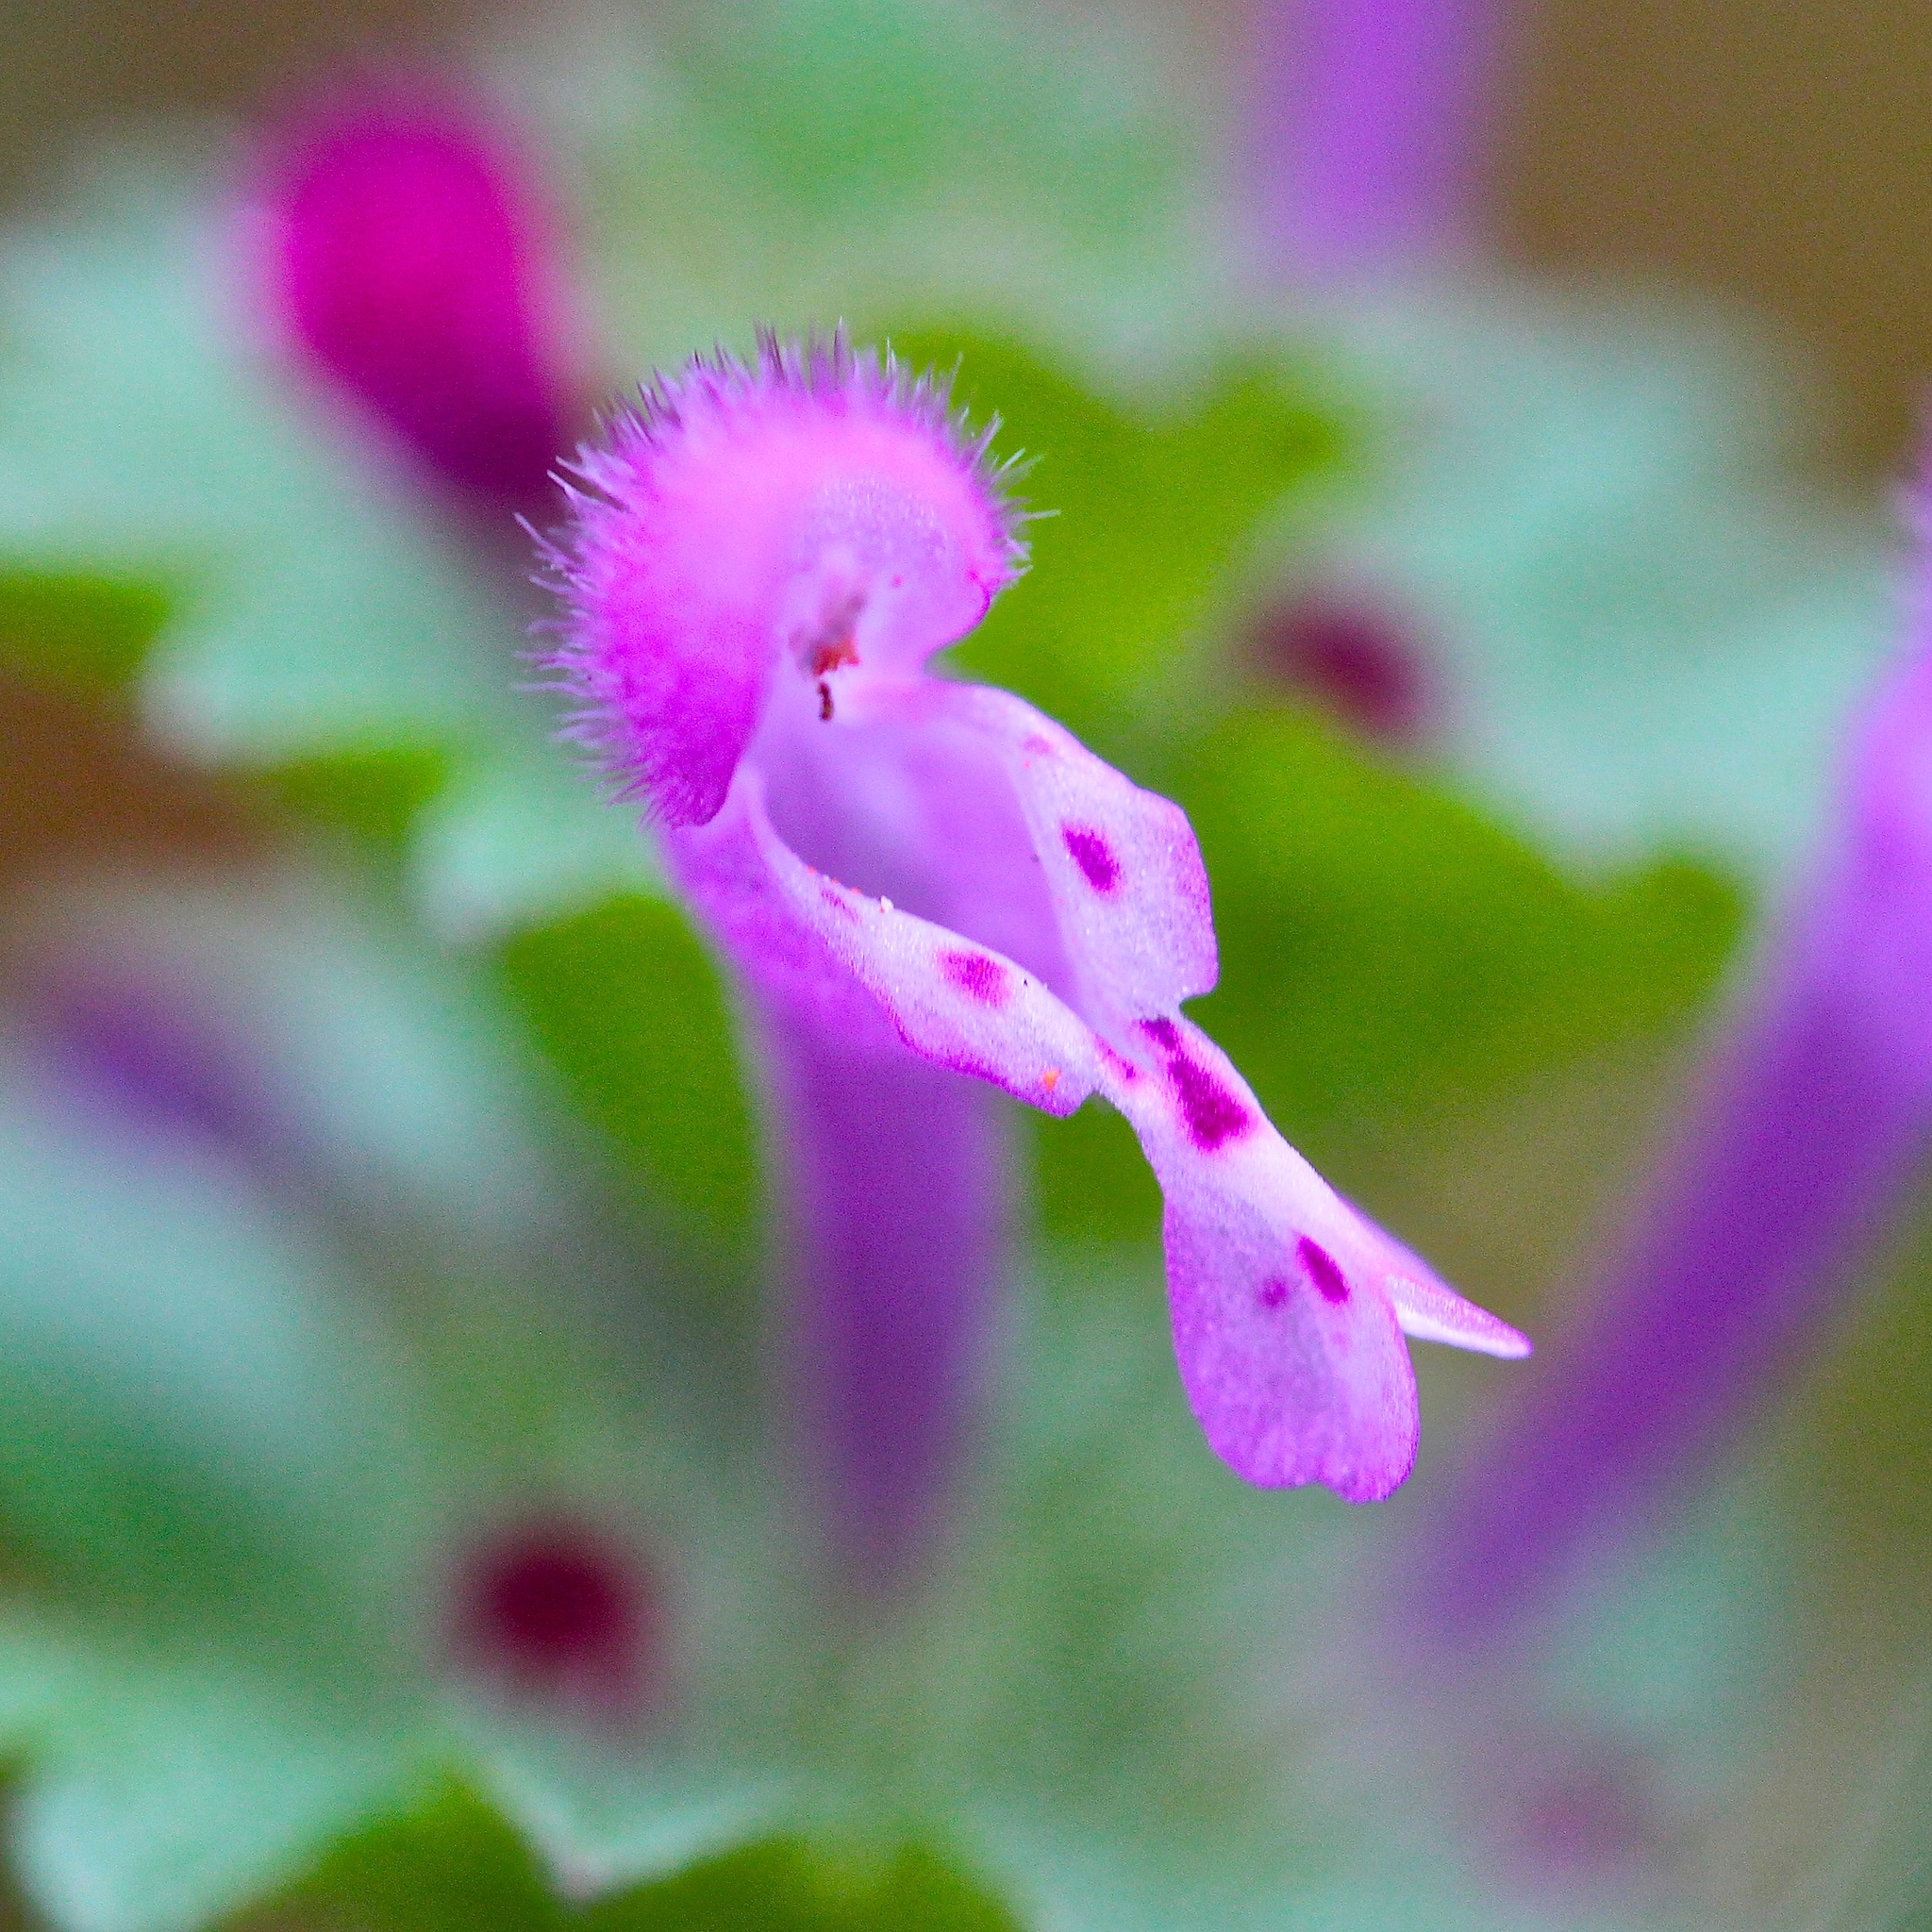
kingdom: Plantae
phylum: Tracheophyta
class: Magnoliopsida
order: Lamiales
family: Lamiaceae
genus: Lamium
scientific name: Lamium amplexicaule
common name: Henbit dead-nettle
